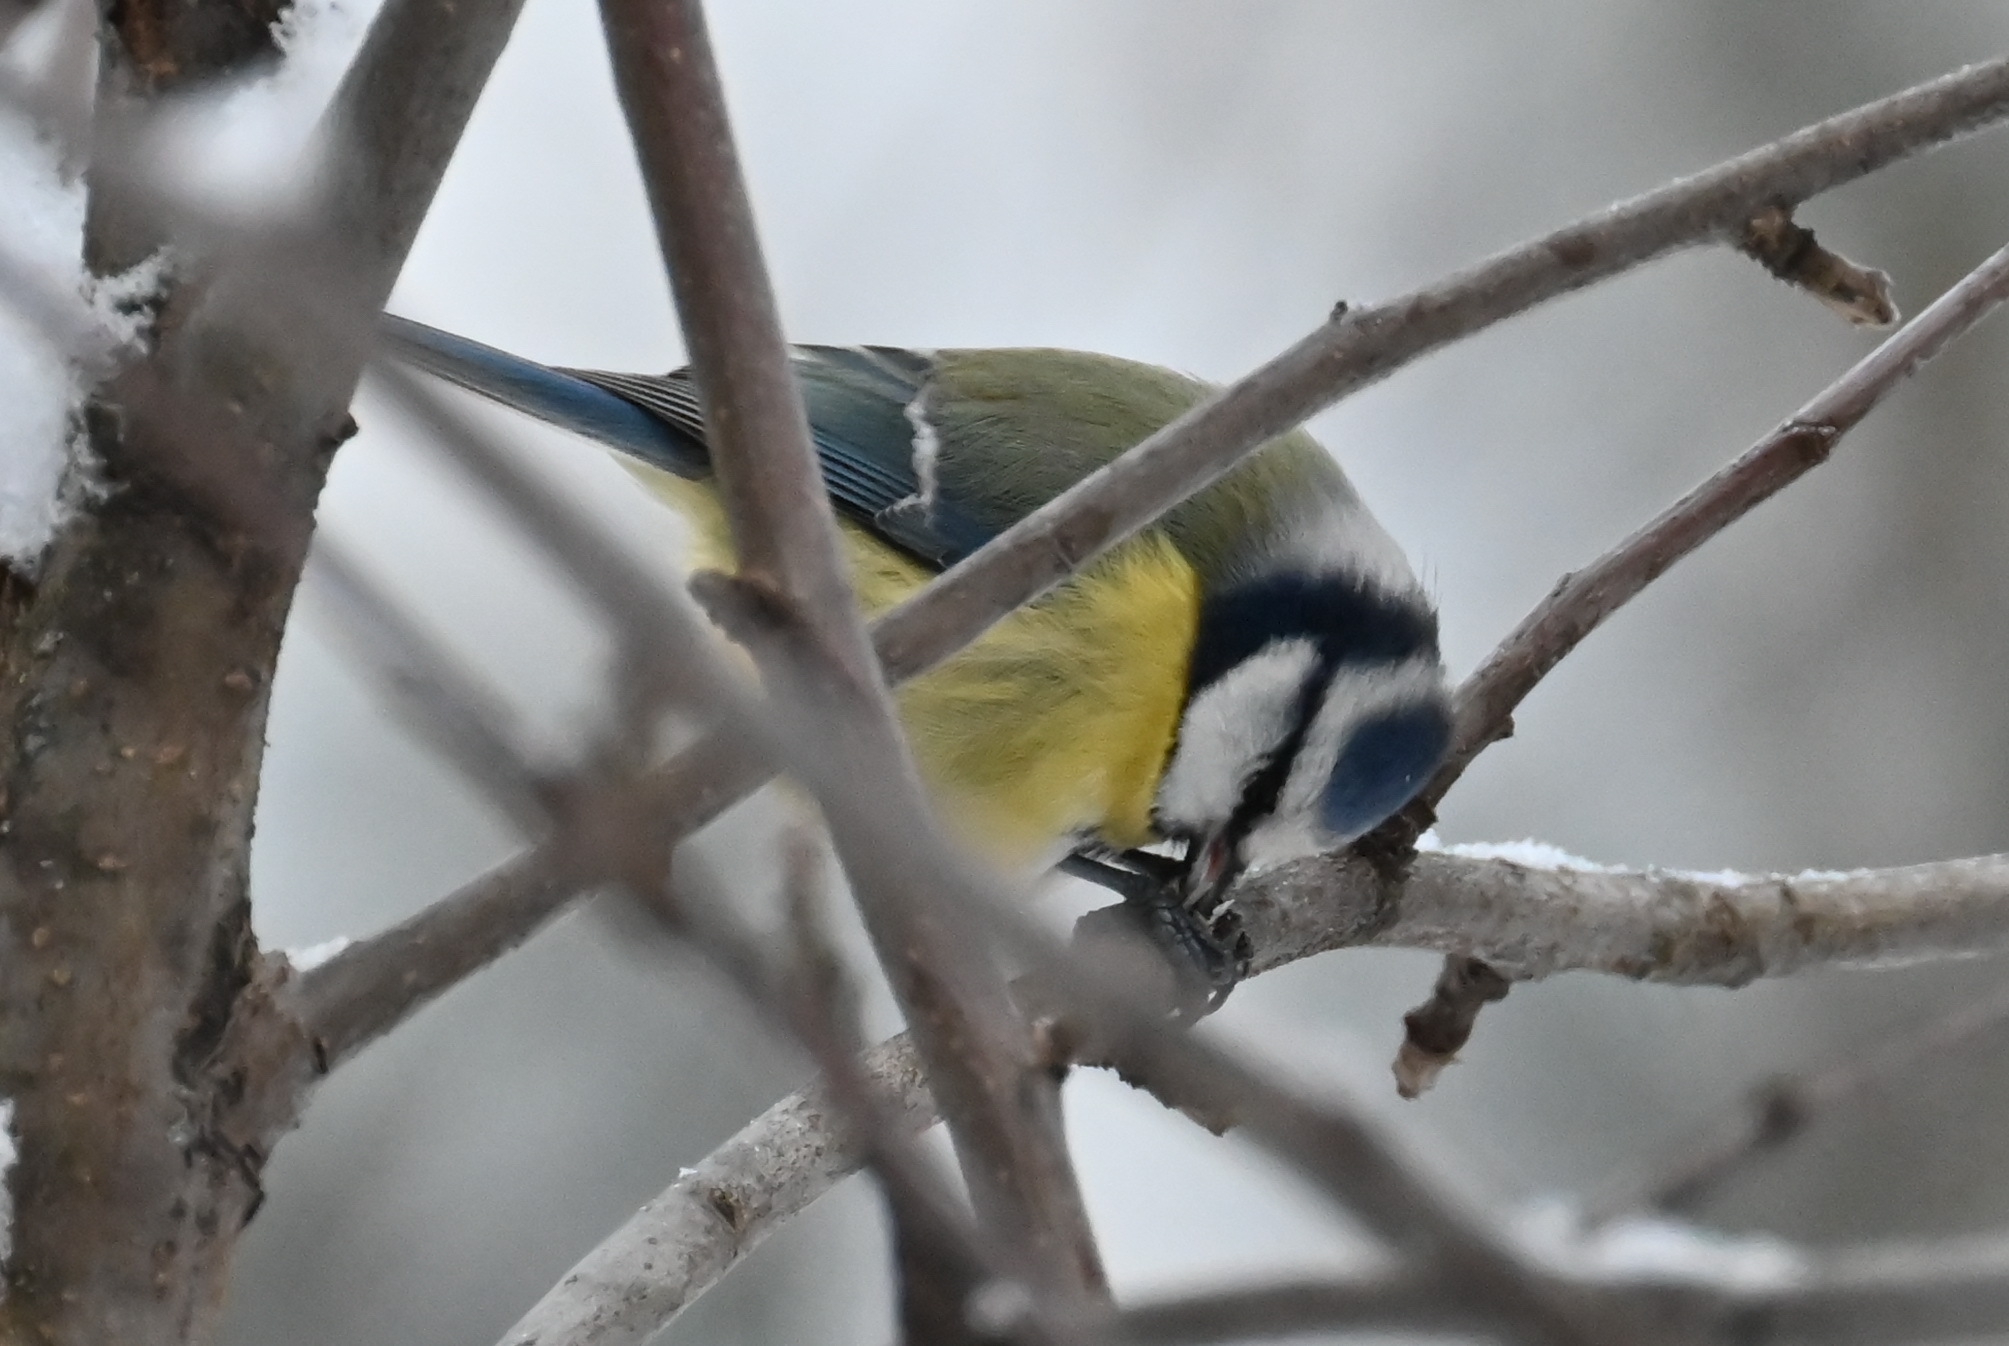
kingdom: Animalia
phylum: Chordata
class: Aves
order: Passeriformes
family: Paridae
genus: Cyanistes
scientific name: Cyanistes caeruleus
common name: Eurasian blue tit
